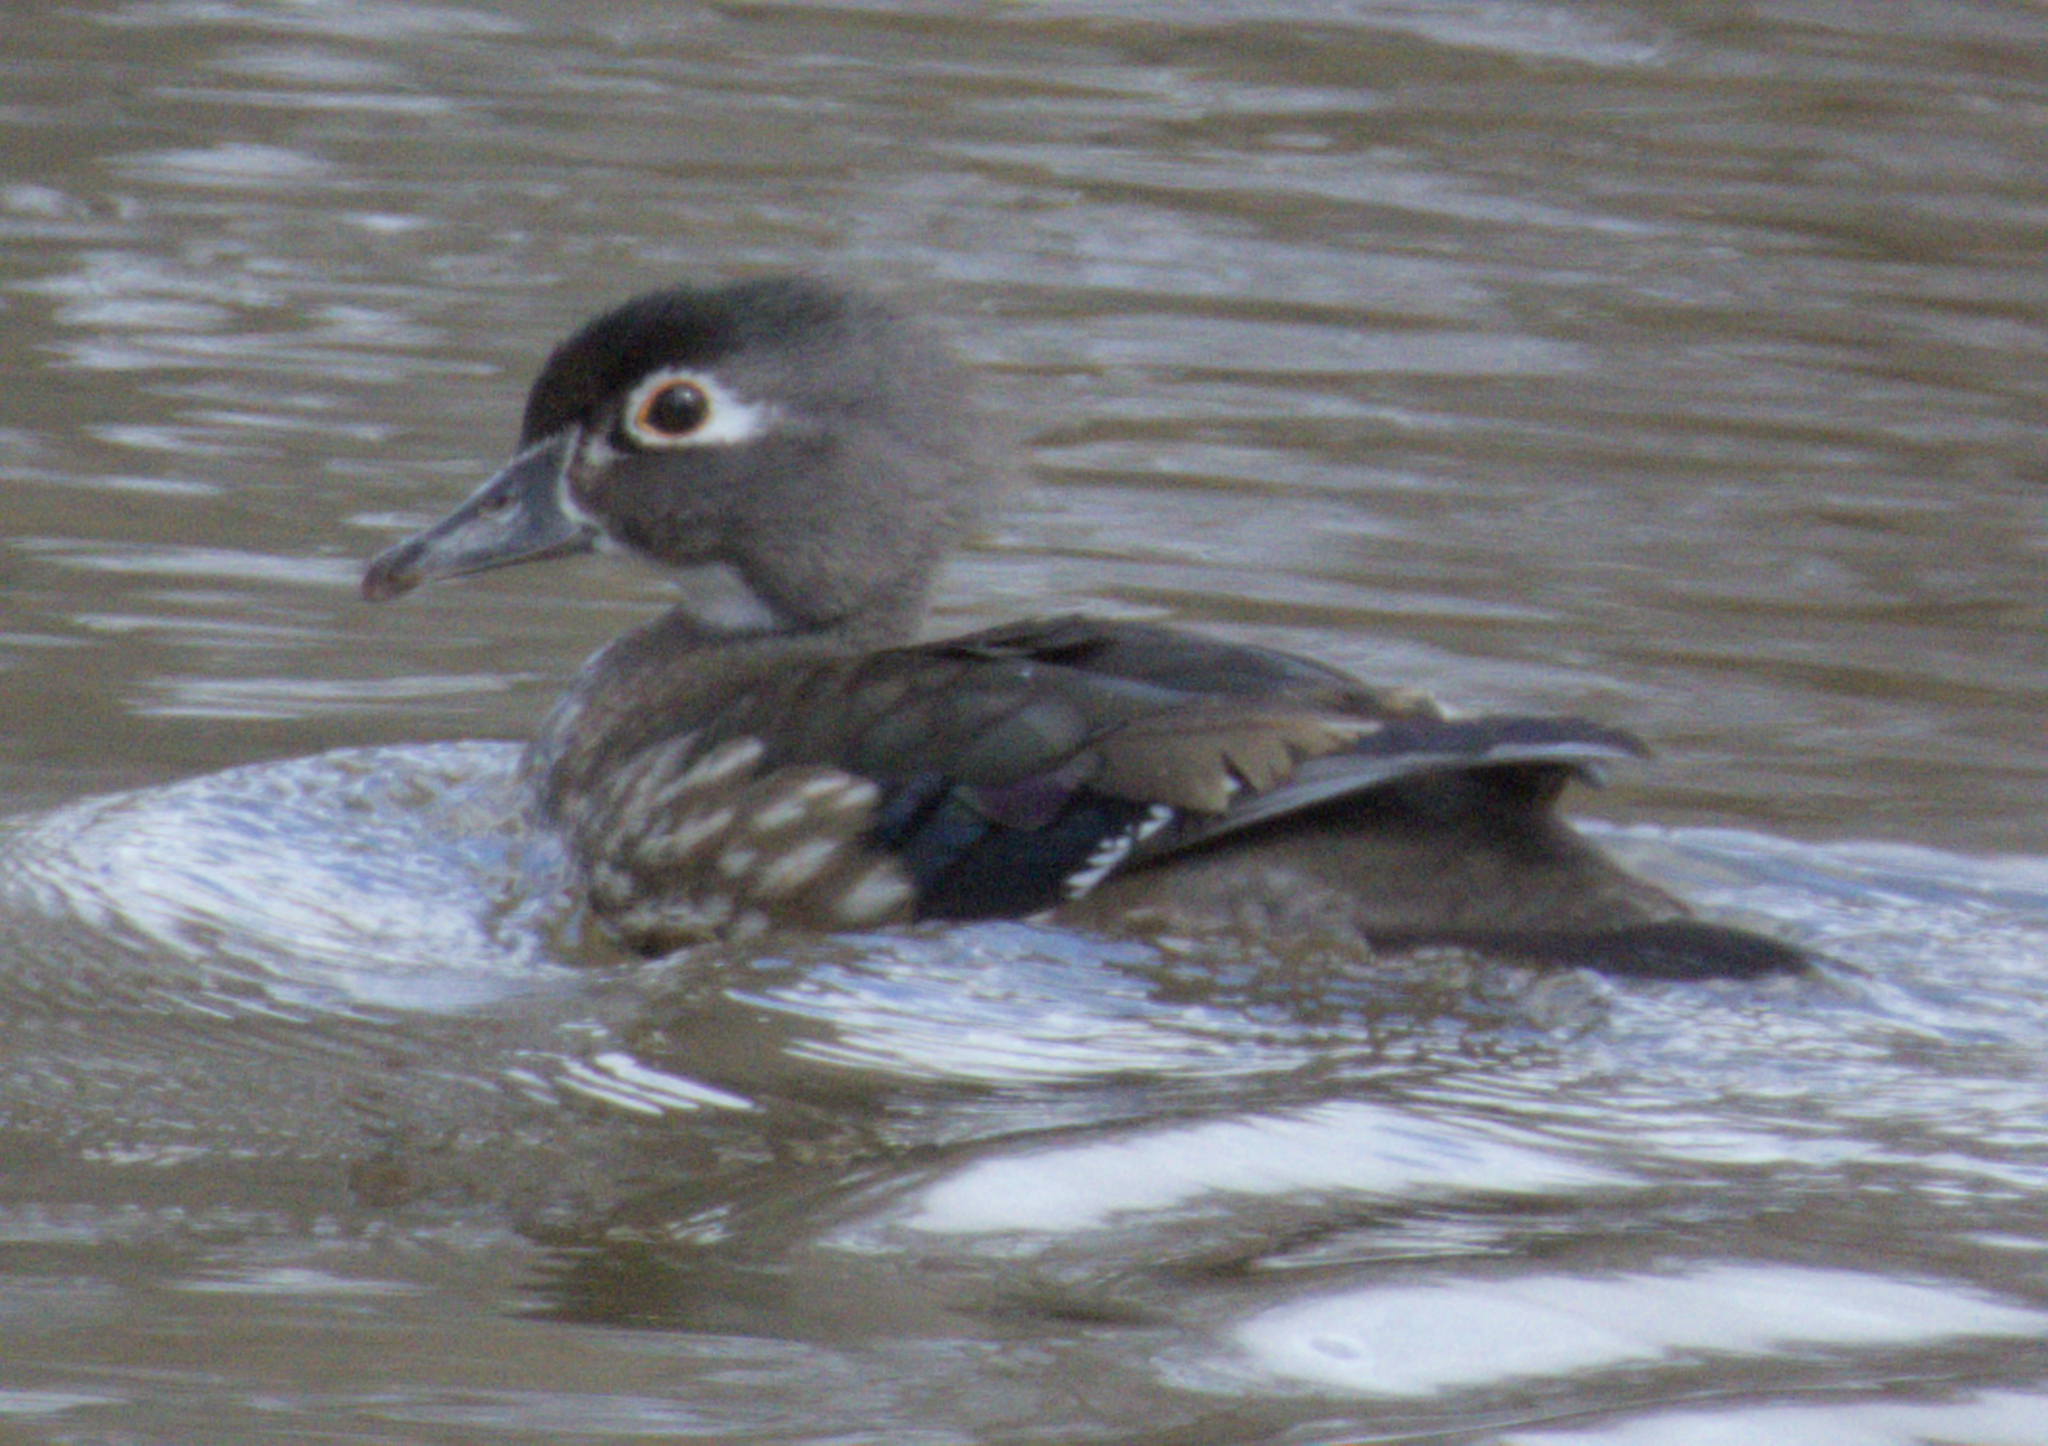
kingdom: Animalia
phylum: Chordata
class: Aves
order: Anseriformes
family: Anatidae
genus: Aix
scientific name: Aix sponsa
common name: Wood duck
